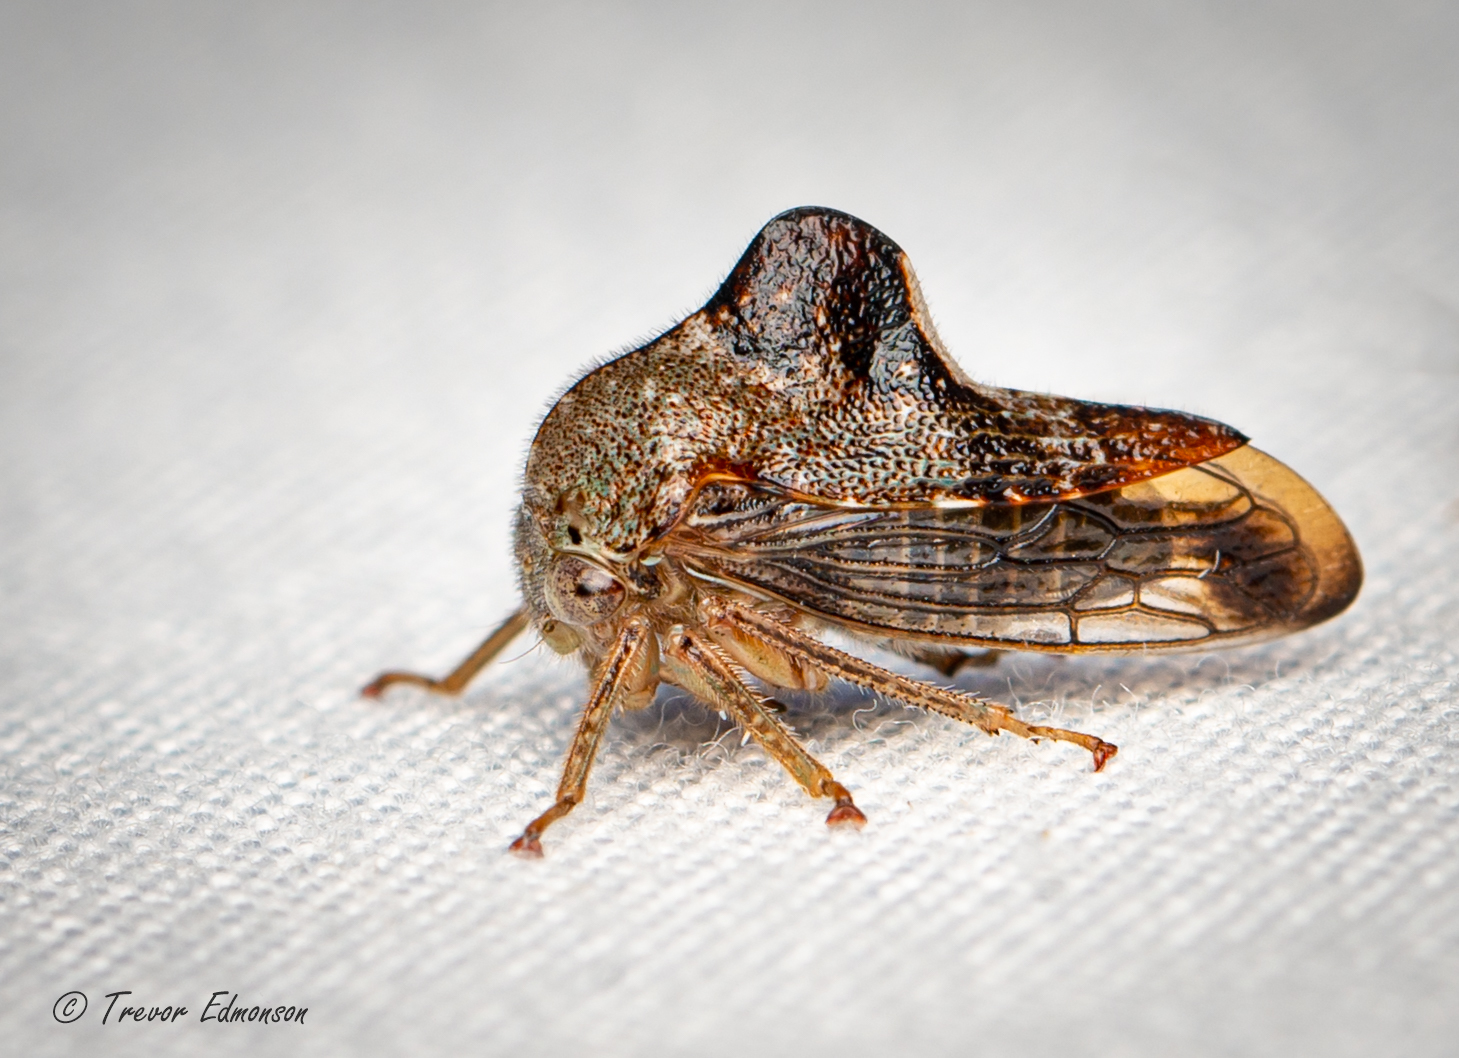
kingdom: Animalia
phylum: Arthropoda
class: Insecta
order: Hemiptera
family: Membracidae
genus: Telamona
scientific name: Telamona decorata
